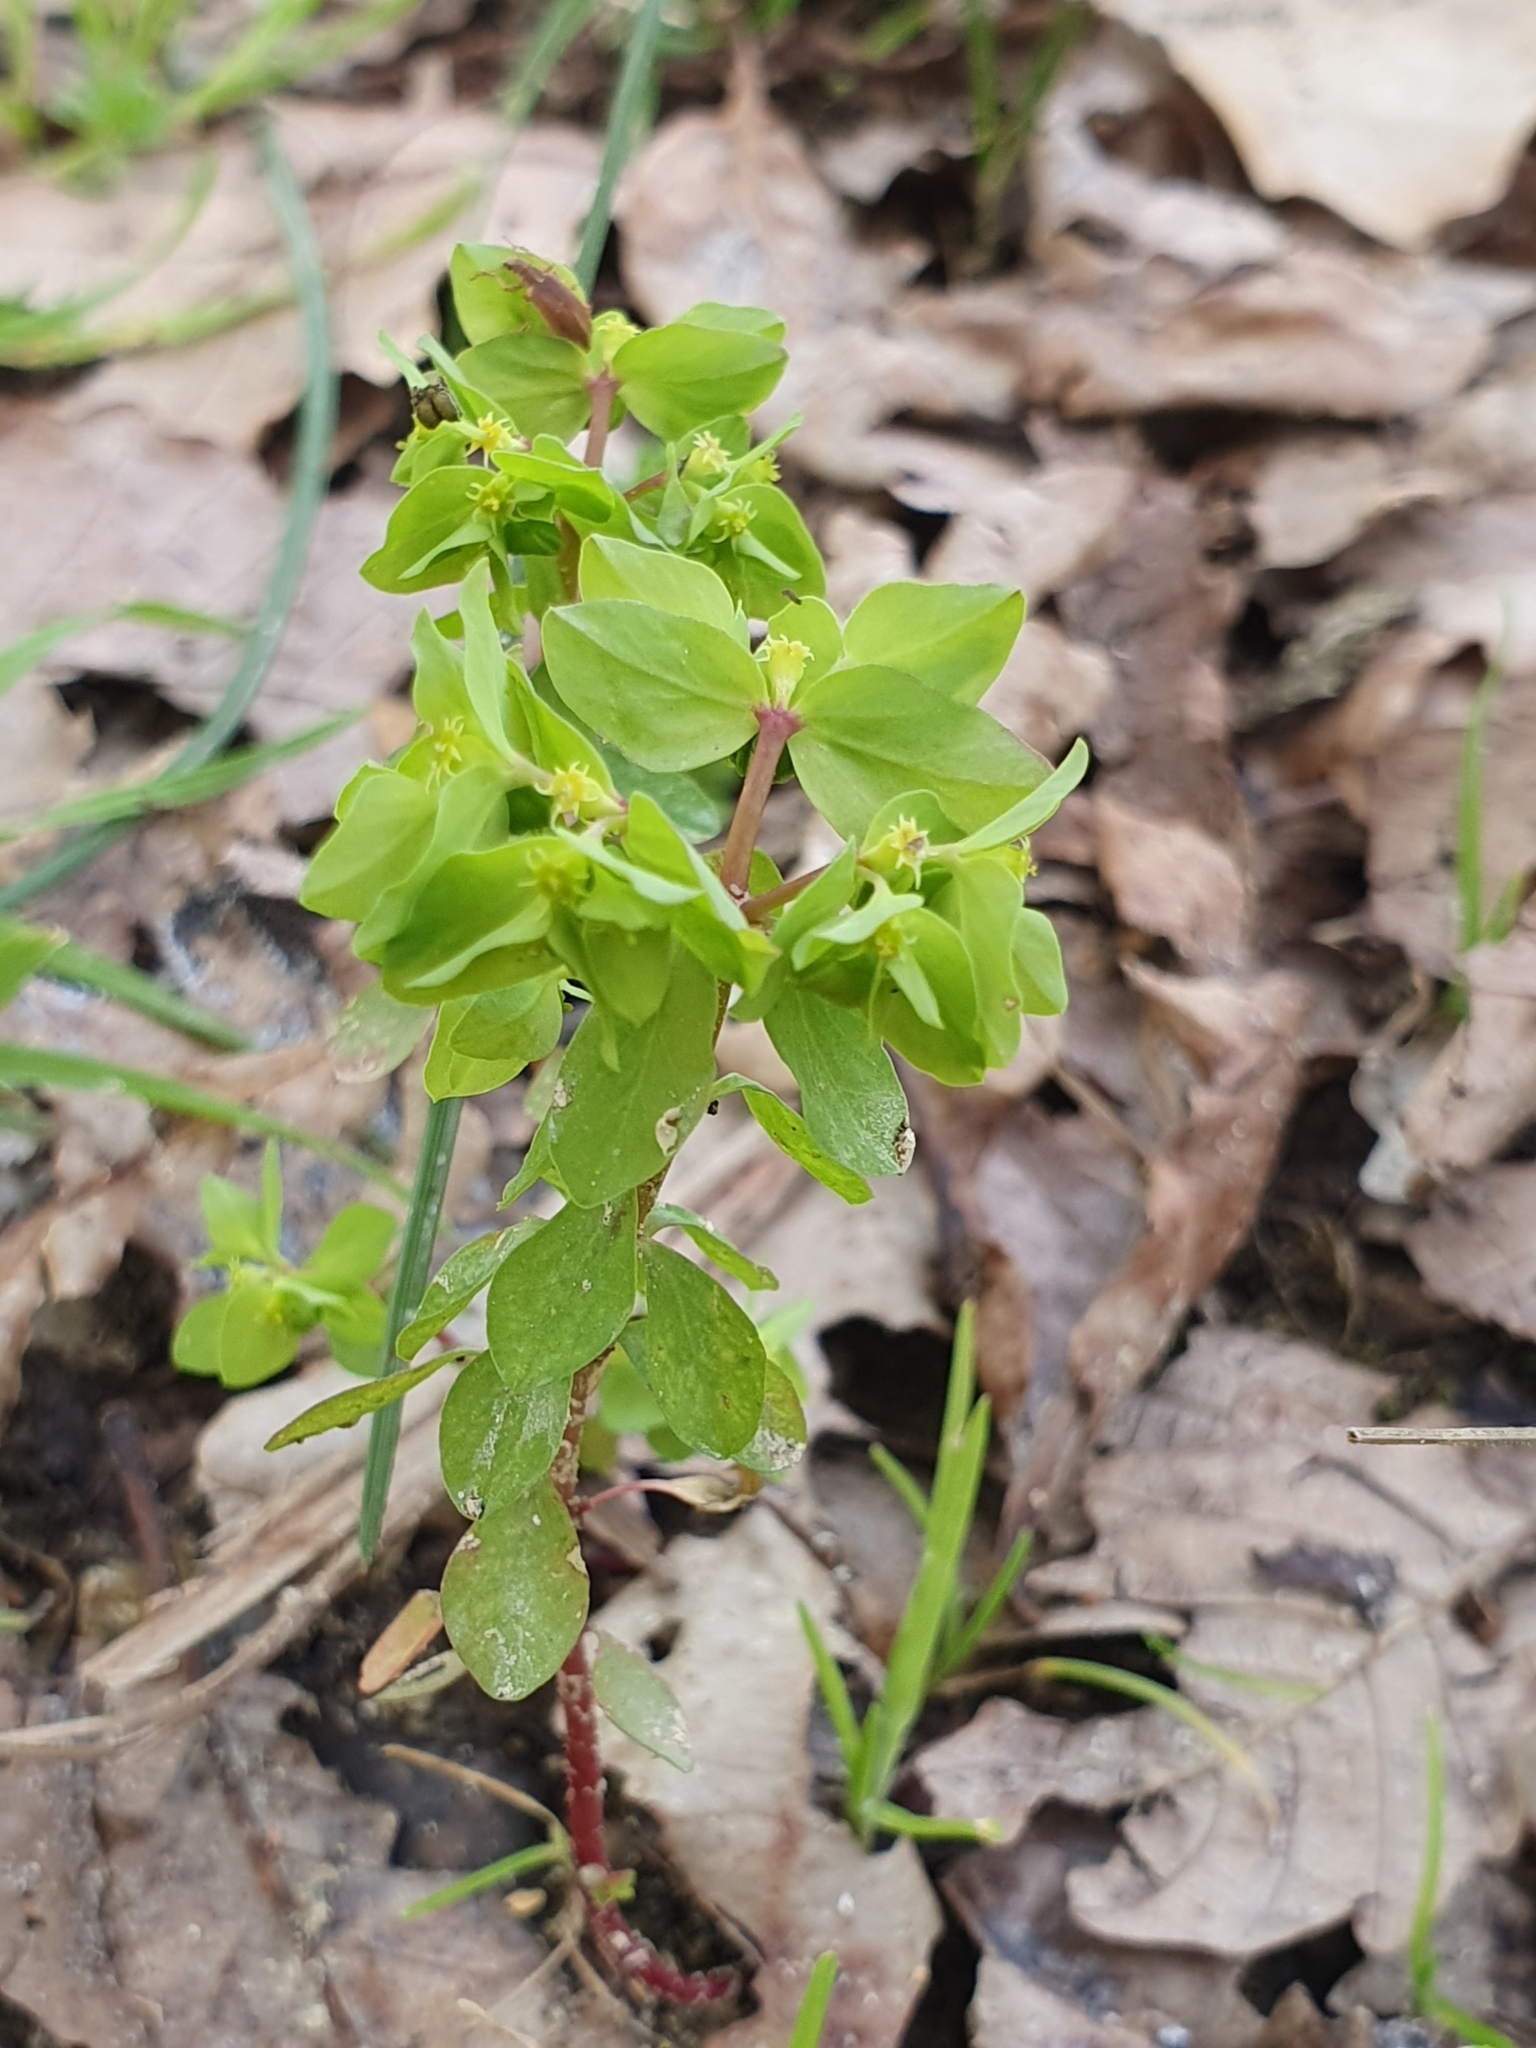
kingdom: Plantae
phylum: Tracheophyta
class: Magnoliopsida
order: Malpighiales
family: Euphorbiaceae
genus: Euphorbia
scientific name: Euphorbia peplus
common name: Petty spurge
